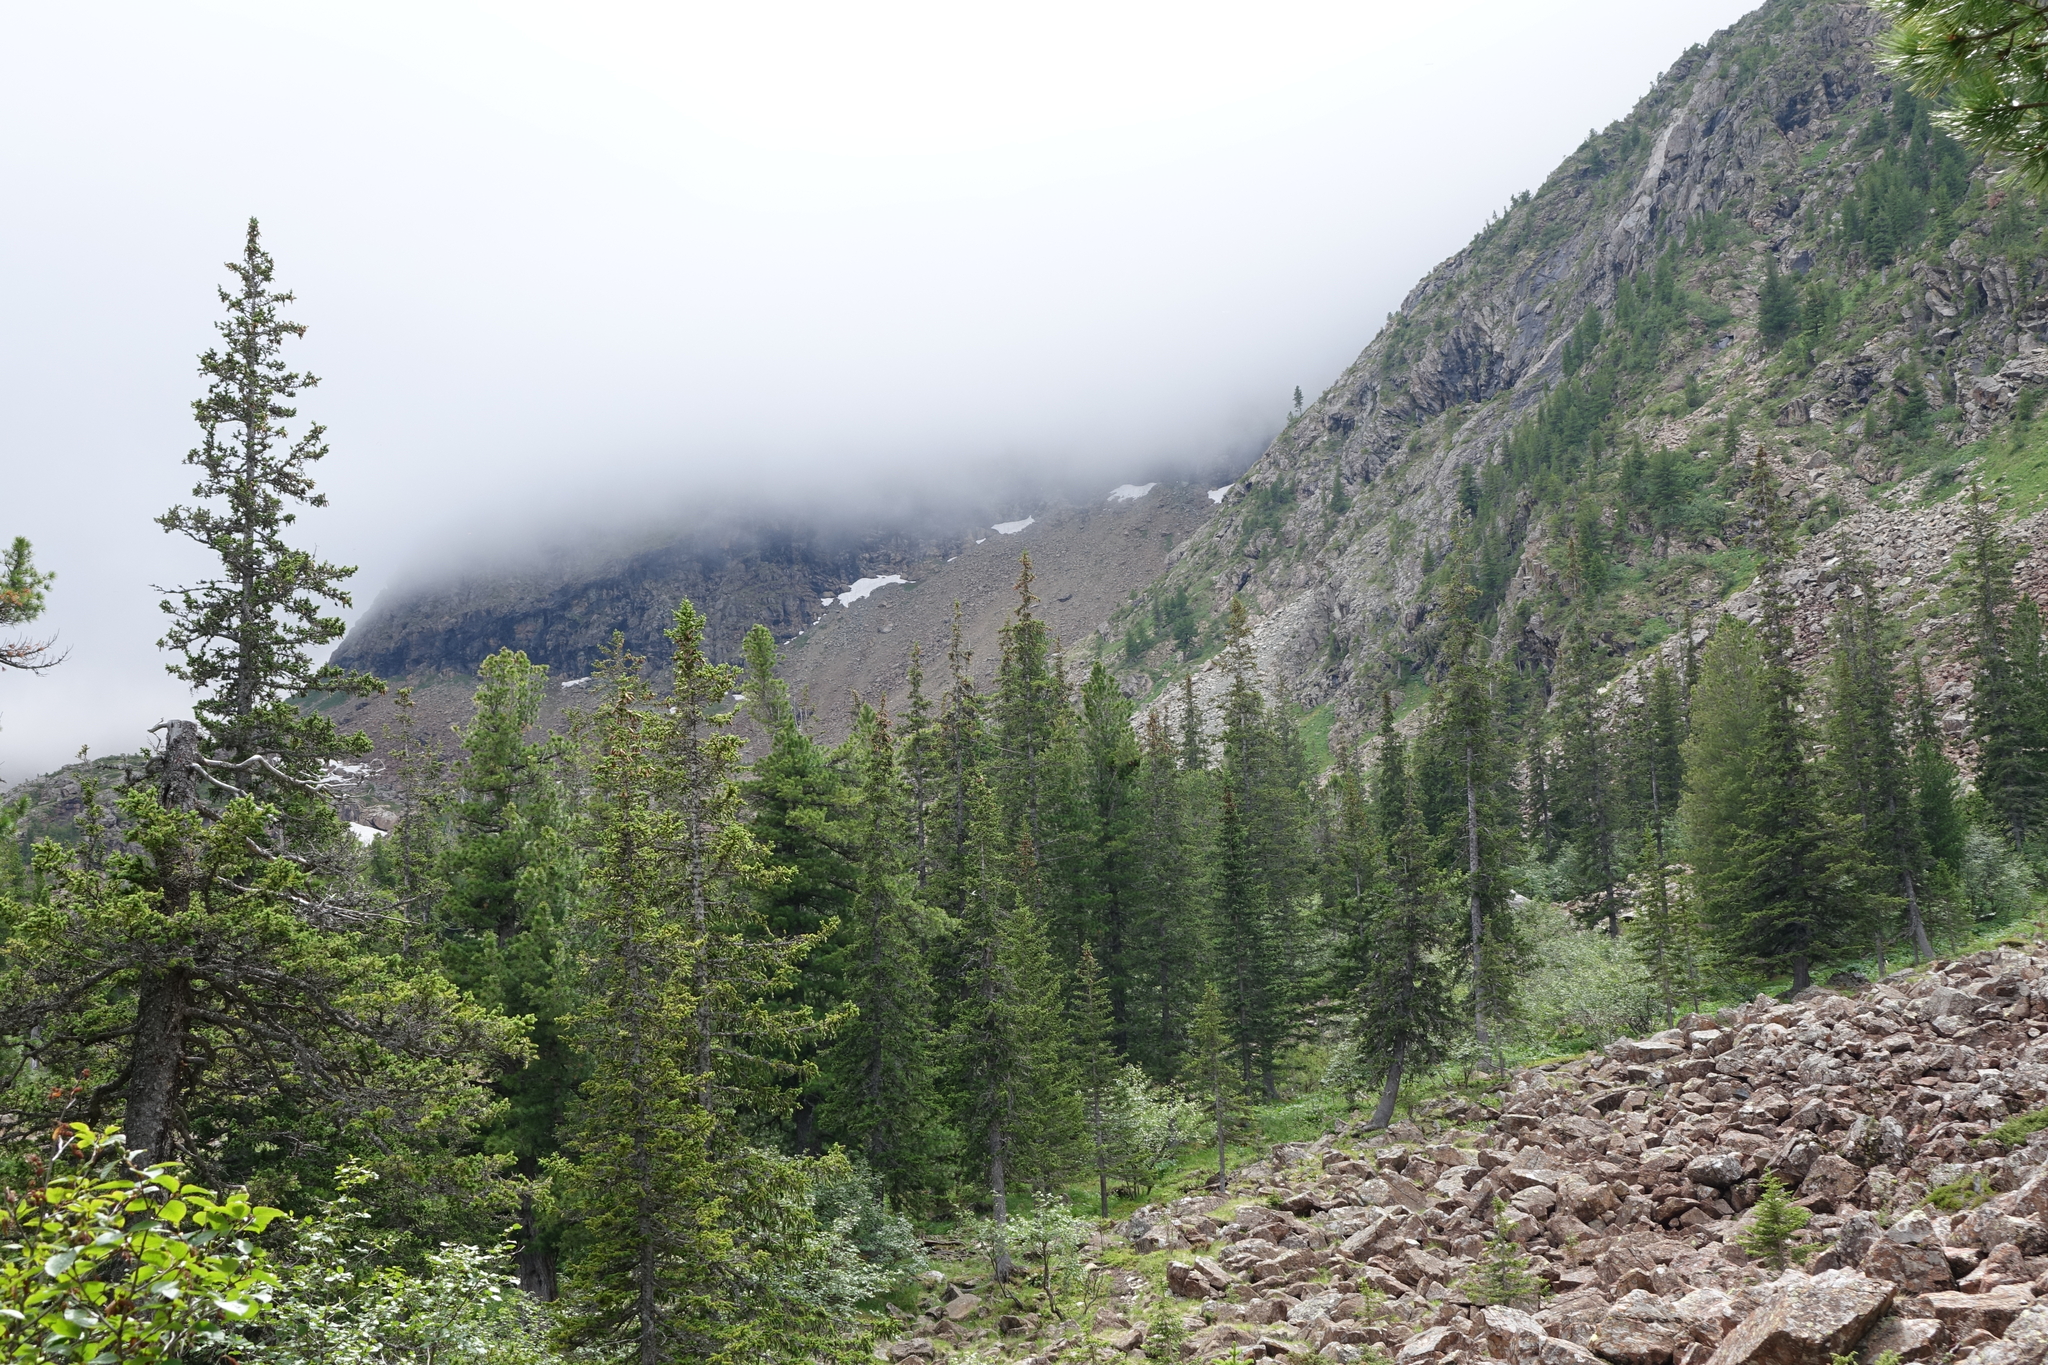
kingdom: Plantae
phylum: Tracheophyta
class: Pinopsida
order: Pinales
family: Pinaceae
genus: Picea
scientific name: Picea obovata
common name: Siberian spruce
